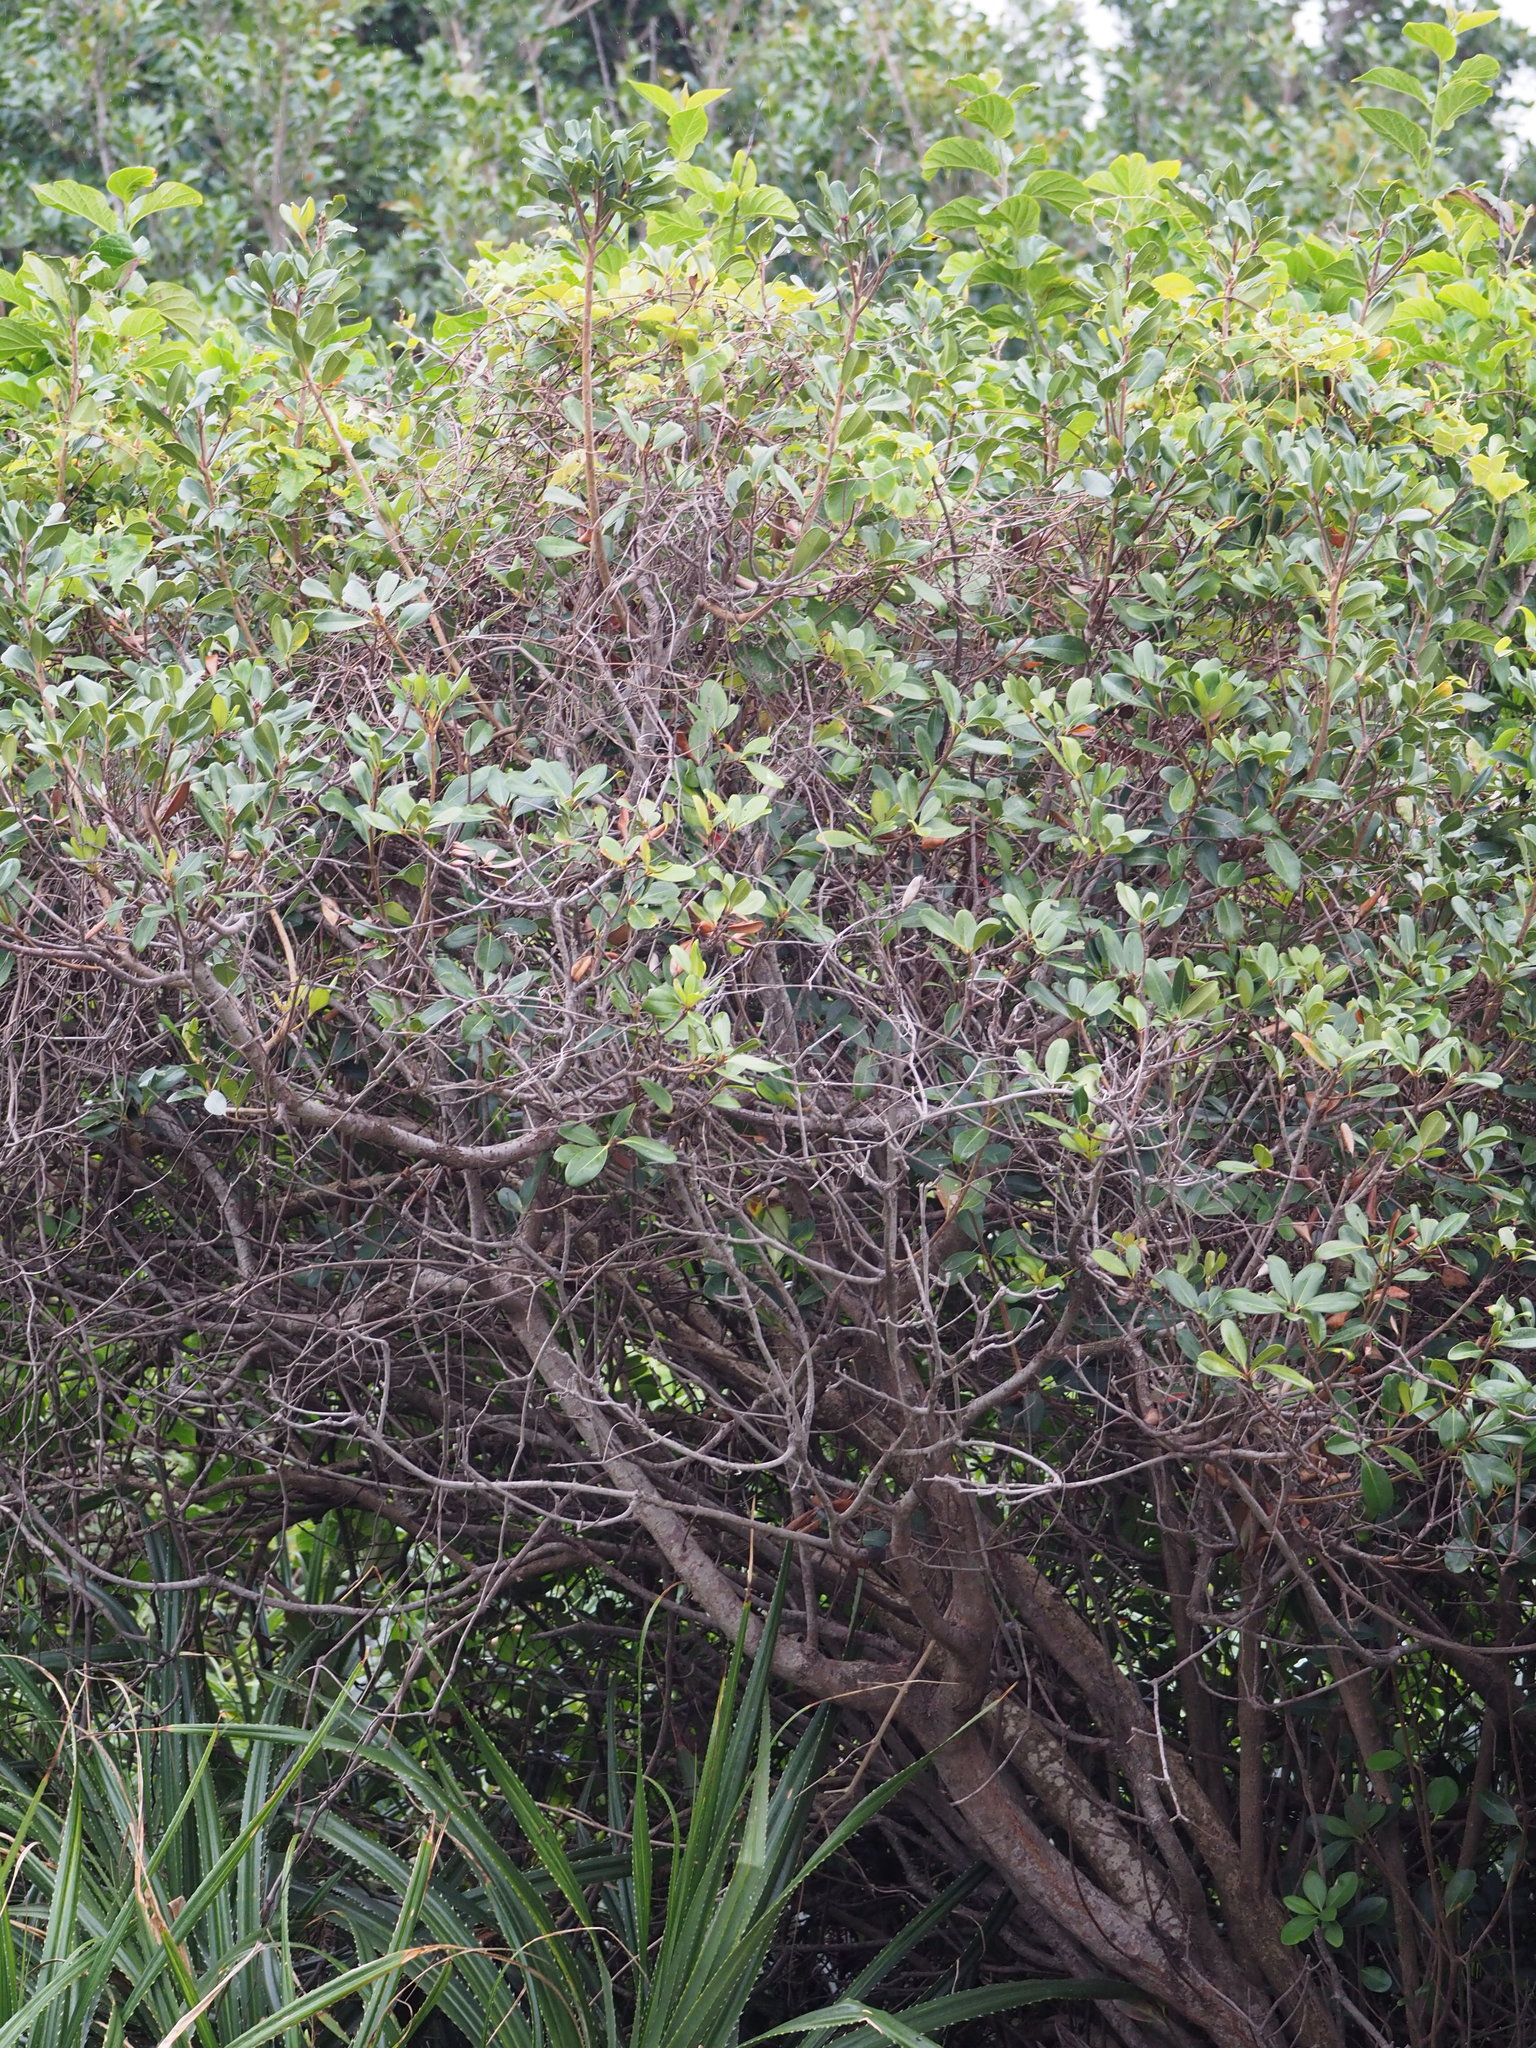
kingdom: Plantae
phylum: Tracheophyta
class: Magnoliopsida
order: Rosales
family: Rosaceae
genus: Rhaphiolepis
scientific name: Rhaphiolepis indica
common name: India-hawthorn
